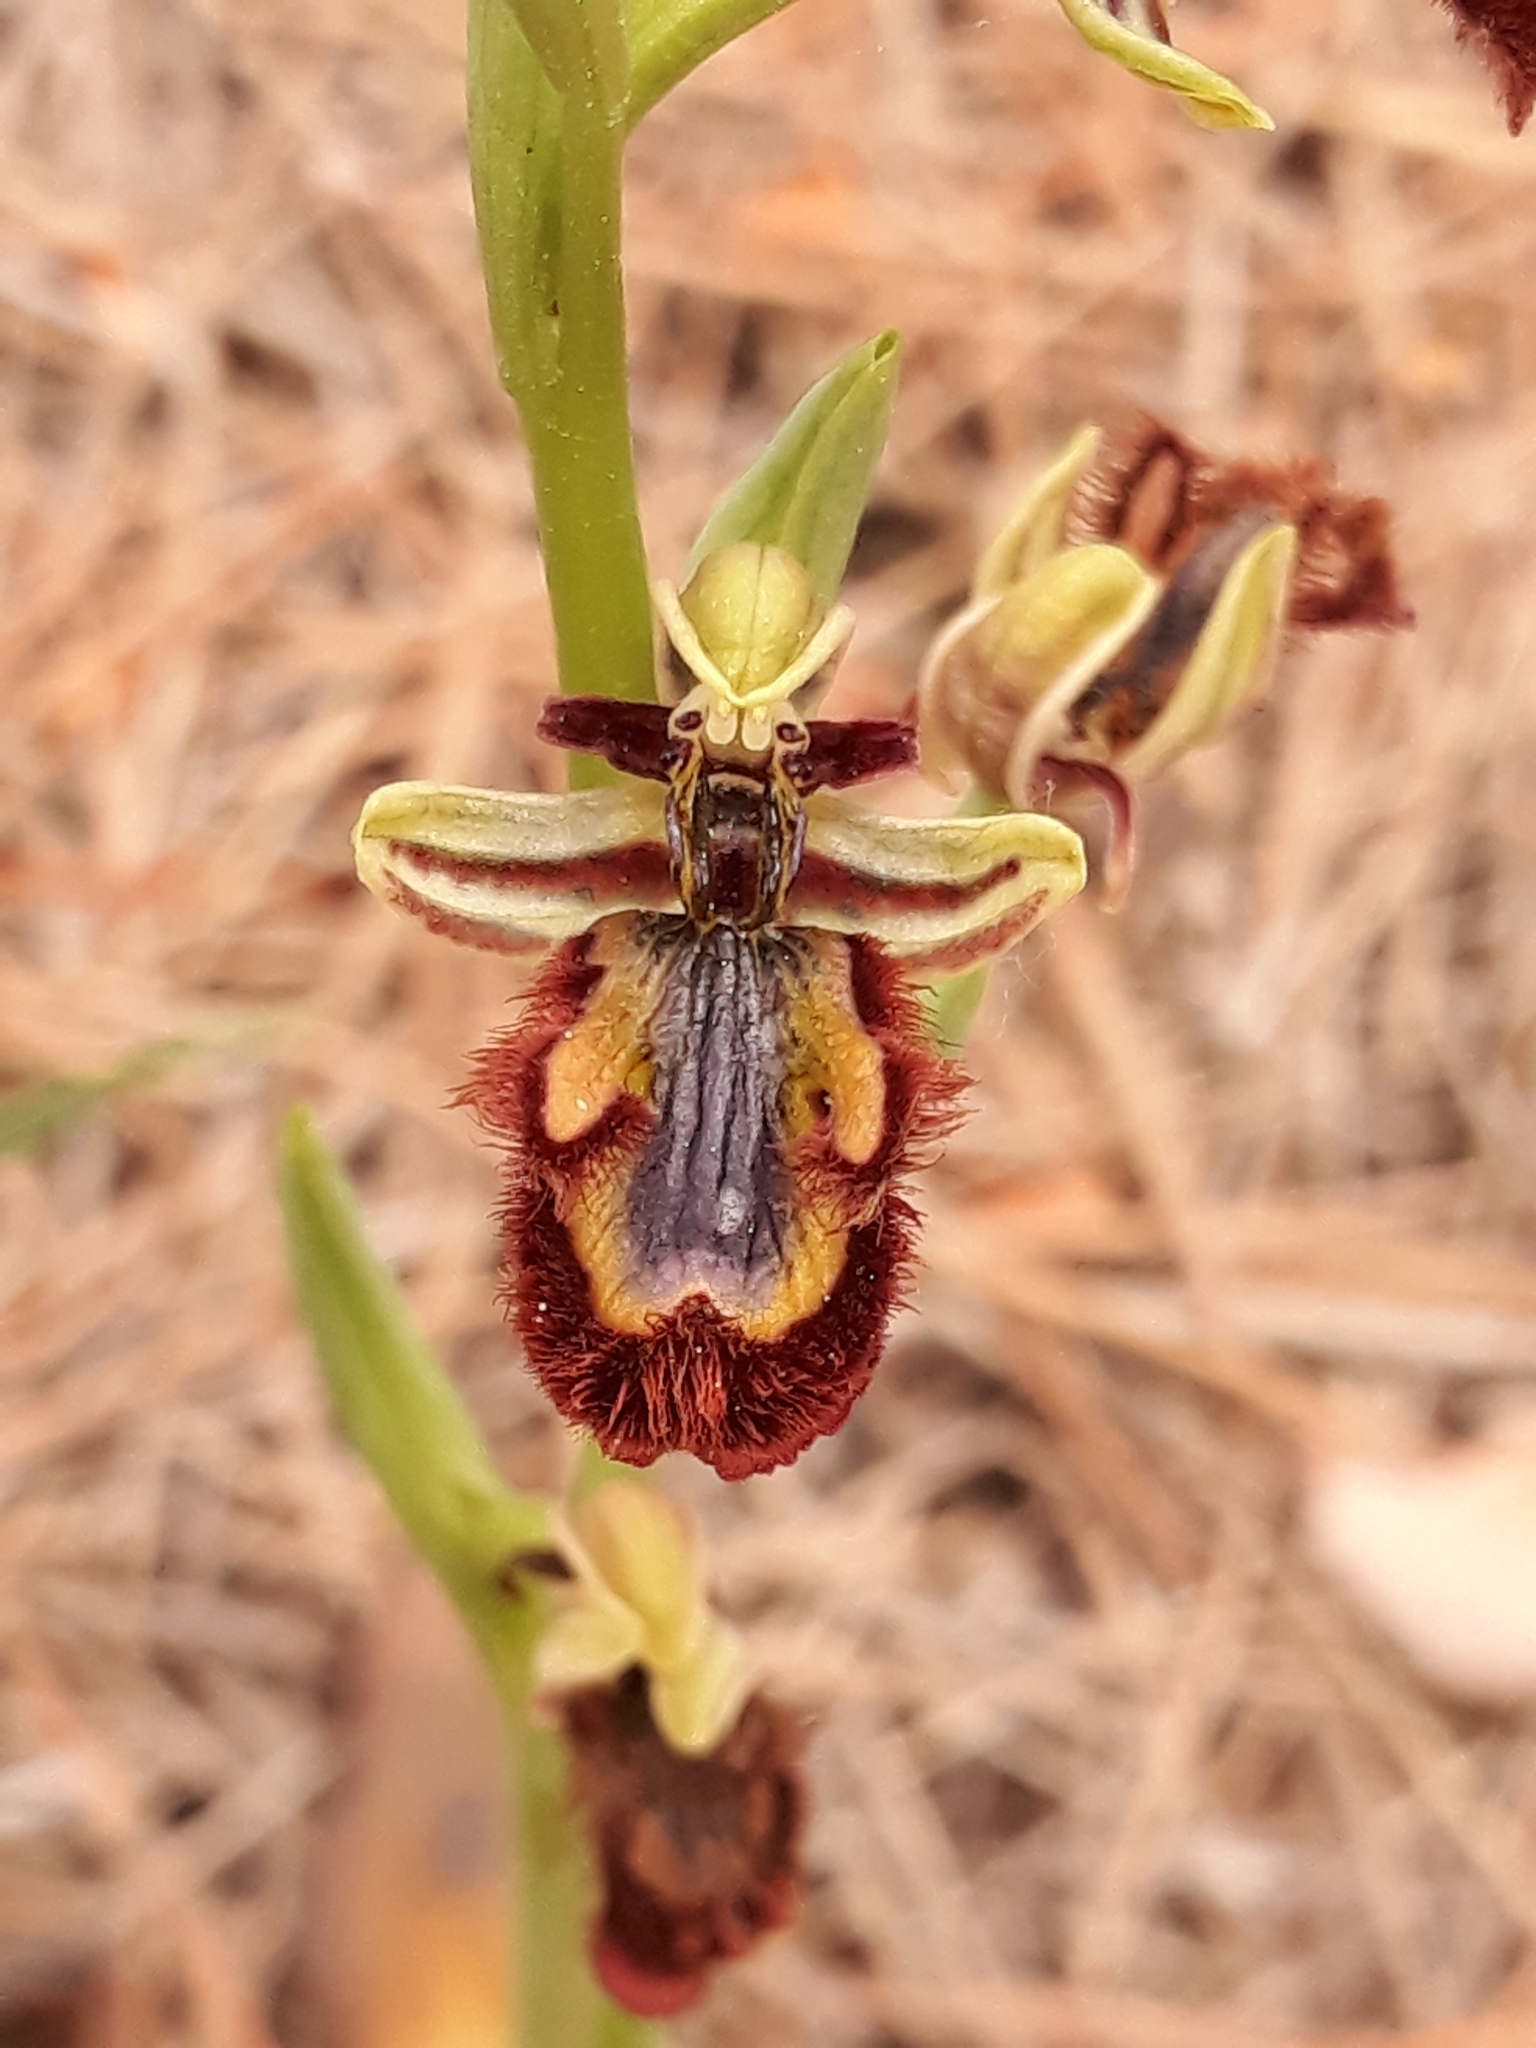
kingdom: Plantae
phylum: Tracheophyta
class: Liliopsida
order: Asparagales
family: Orchidaceae
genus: Ophrys
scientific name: Ophrys speculum
